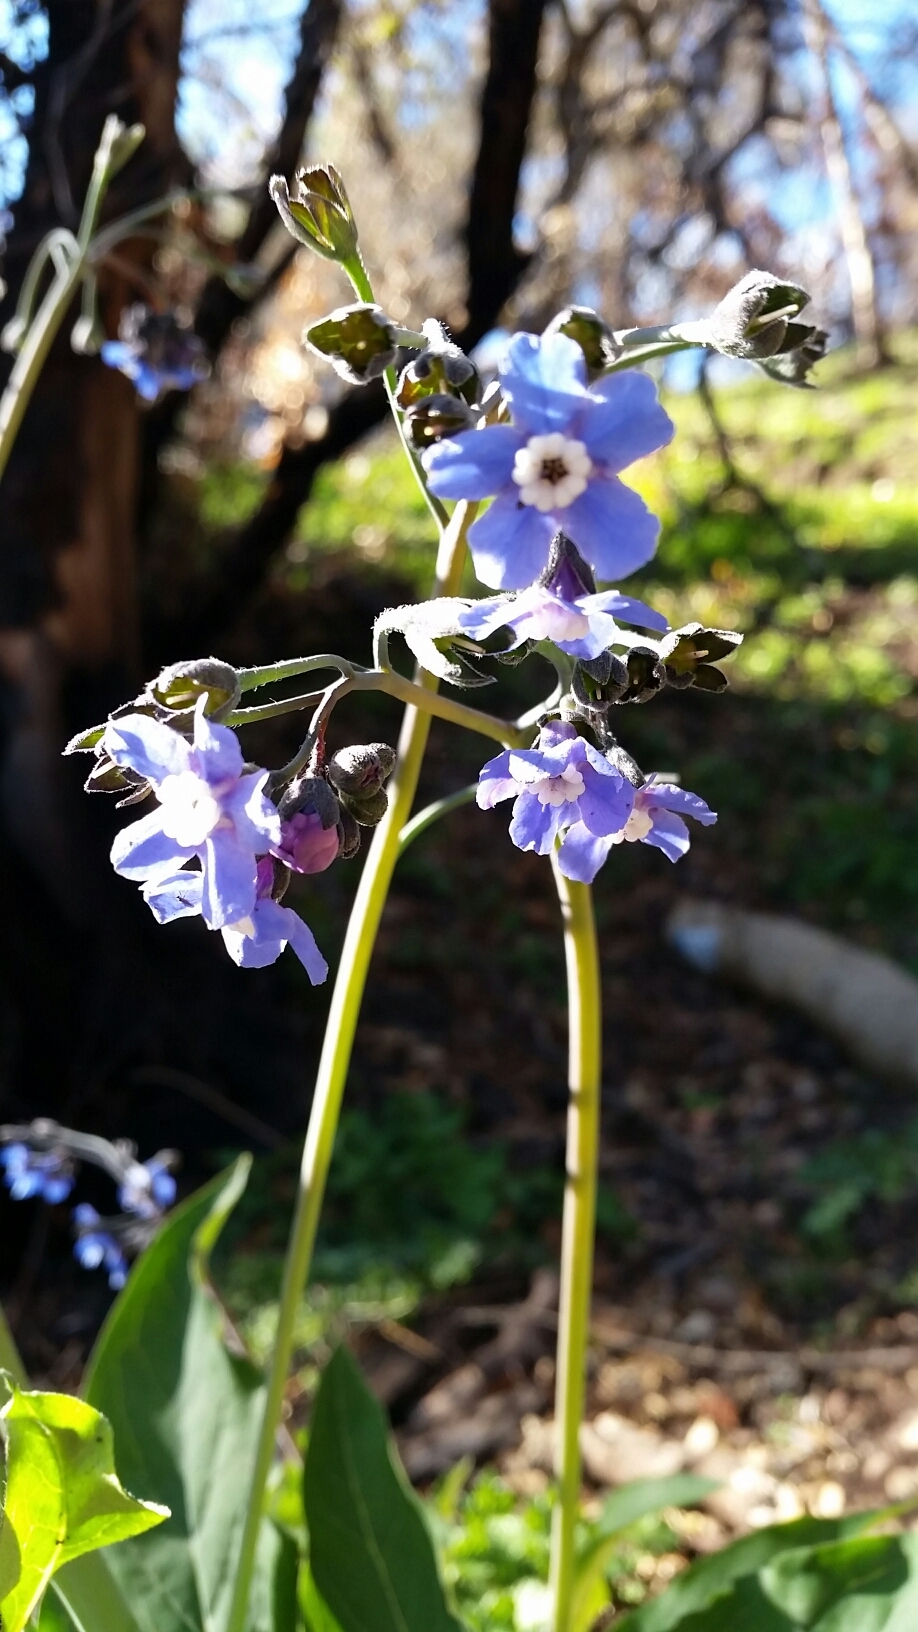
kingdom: Plantae
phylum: Tracheophyta
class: Magnoliopsida
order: Boraginales
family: Boraginaceae
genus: Adelinia
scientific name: Adelinia grande
